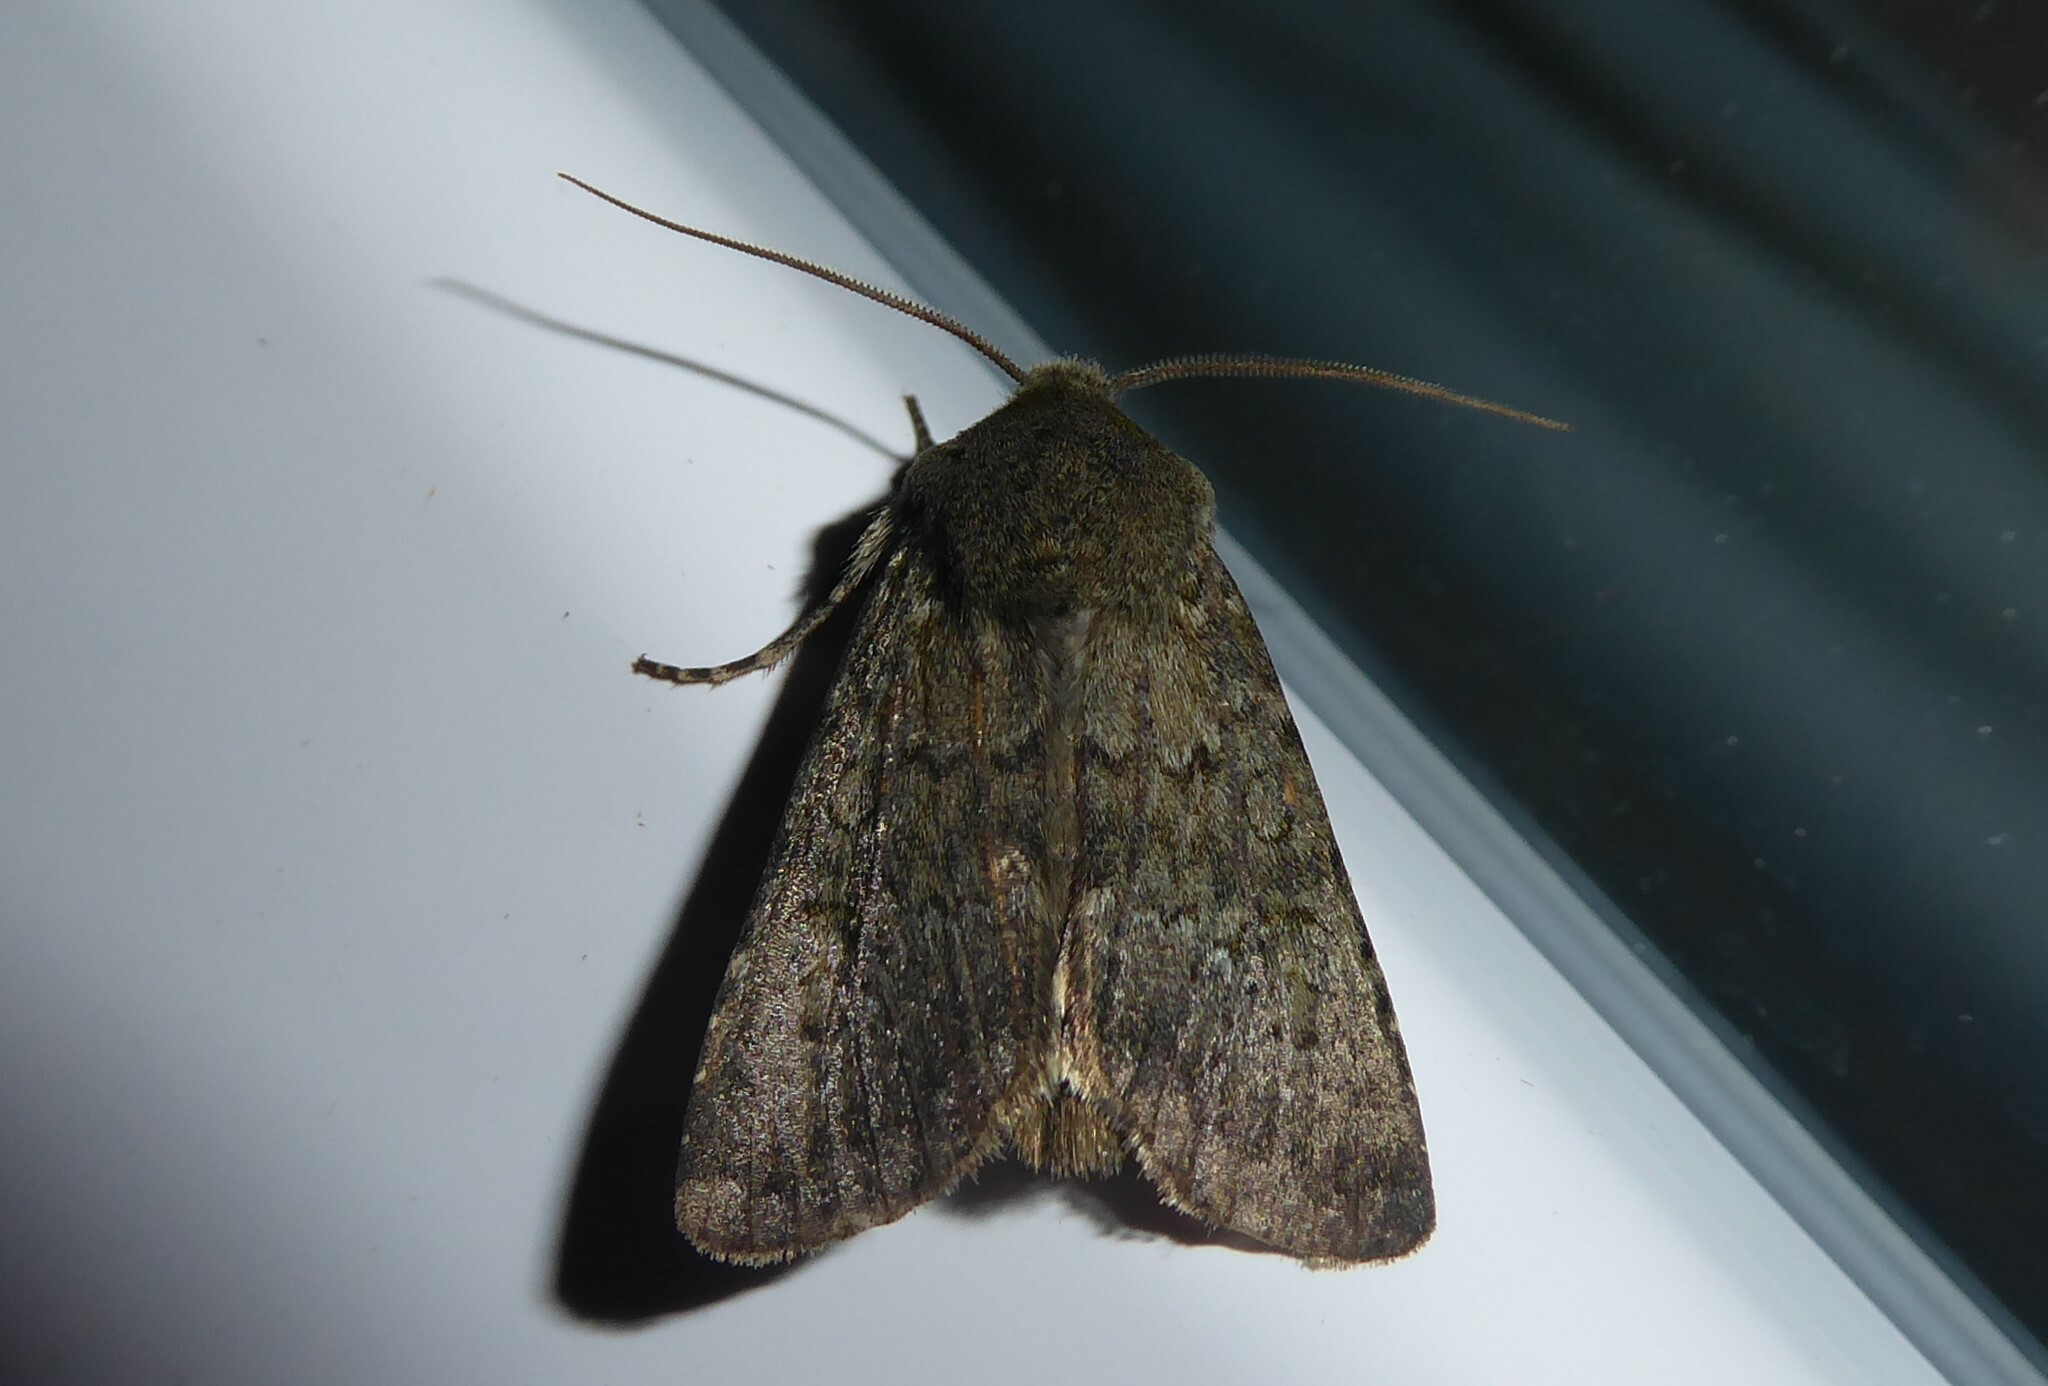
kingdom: Animalia
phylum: Arthropoda
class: Insecta
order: Lepidoptera
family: Noctuidae
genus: Ichneutica
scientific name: Ichneutica moderata
